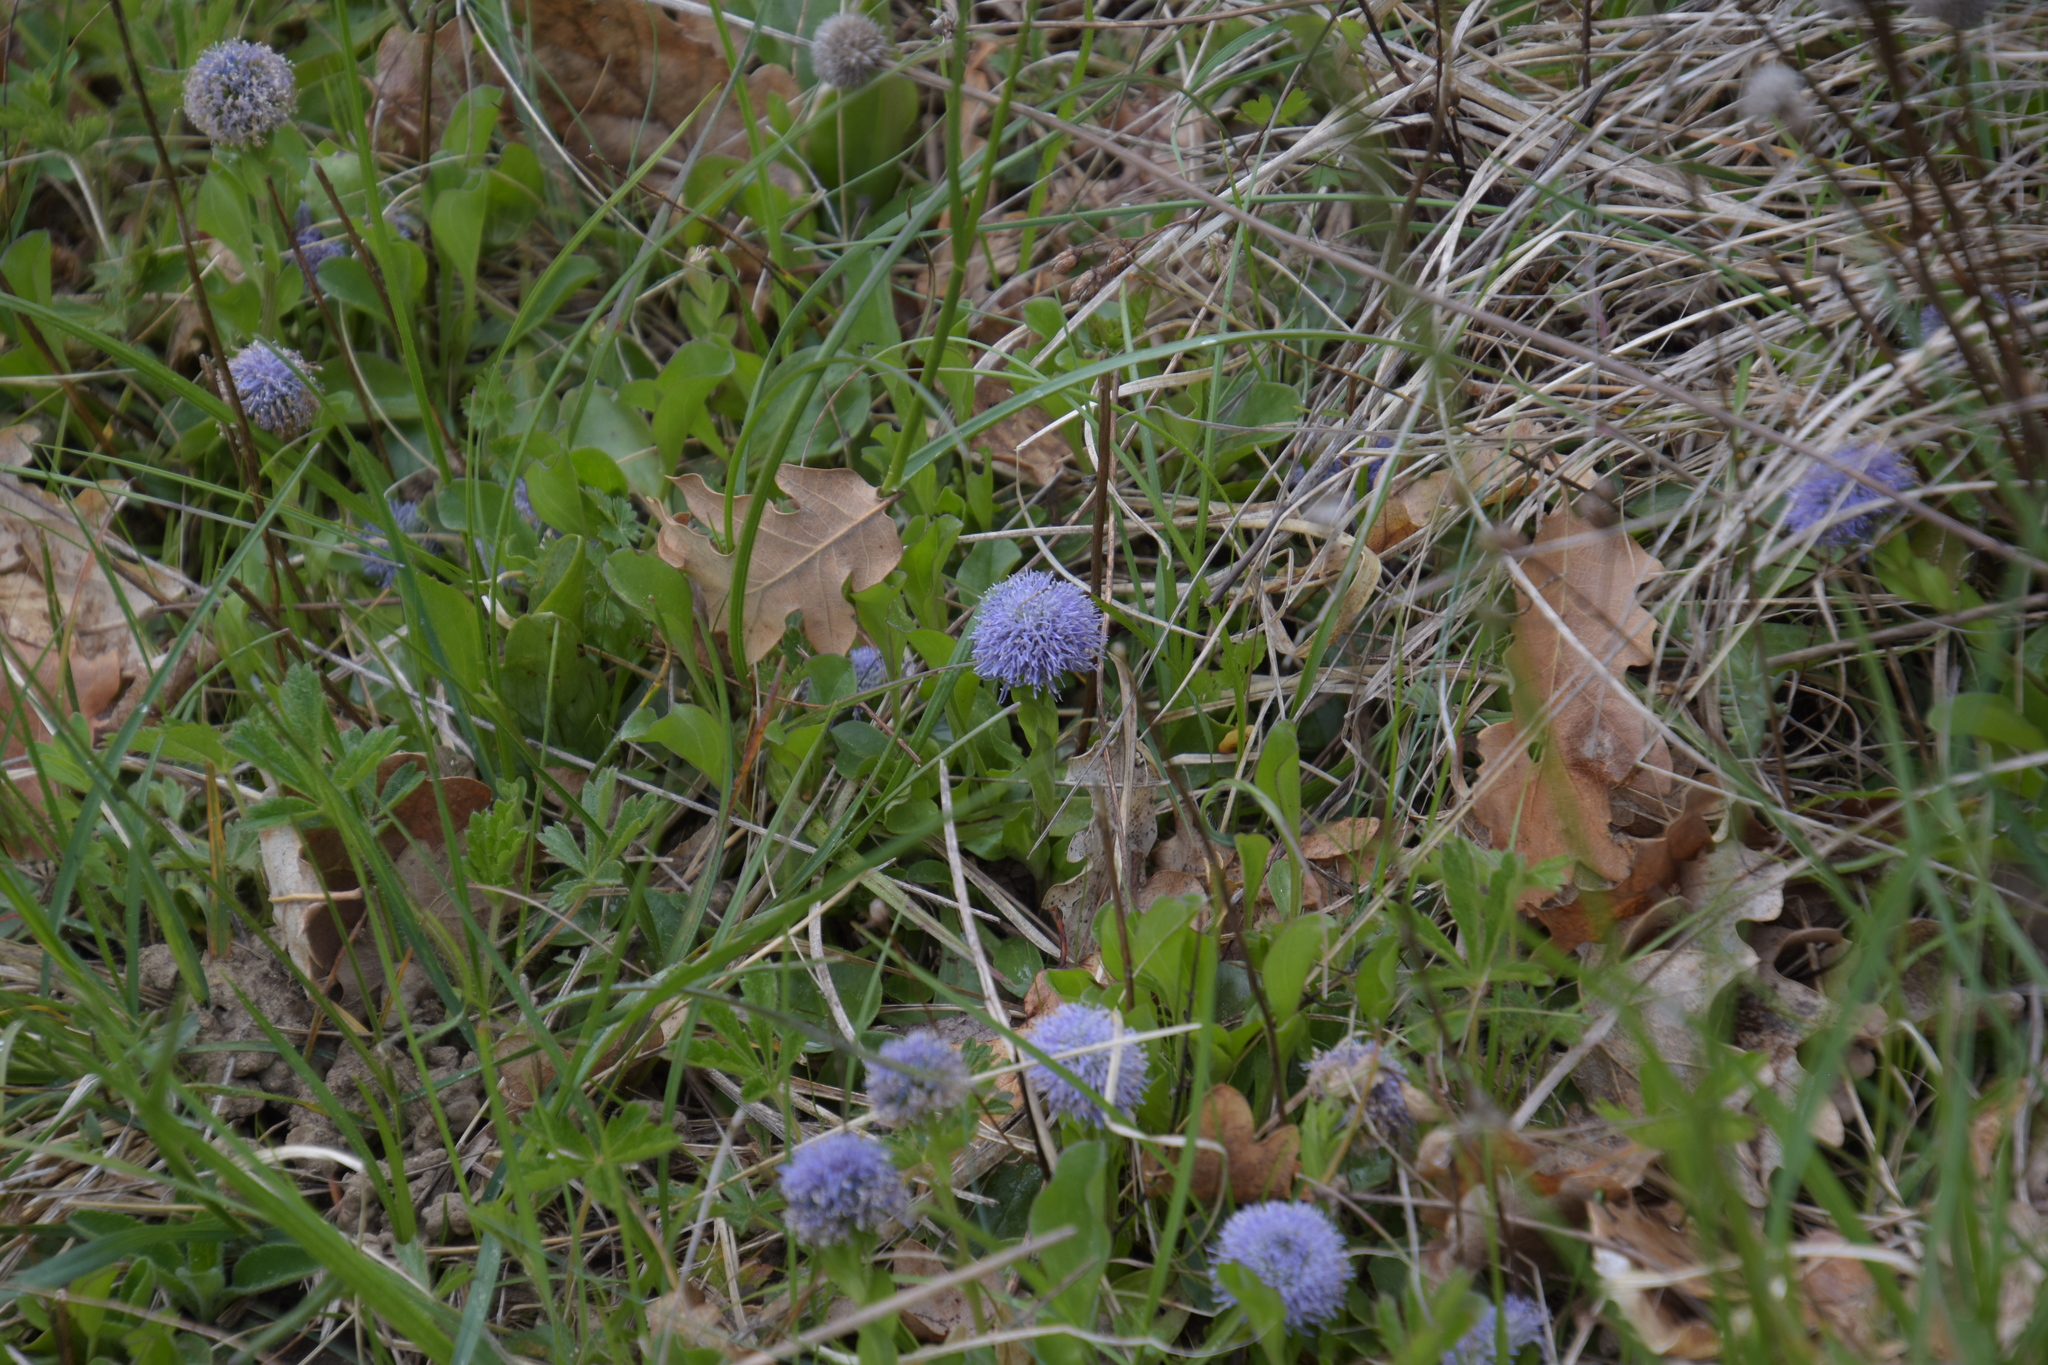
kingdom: Plantae
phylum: Tracheophyta
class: Magnoliopsida
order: Lamiales
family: Plantaginaceae
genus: Globularia
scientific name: Globularia bisnagarica
